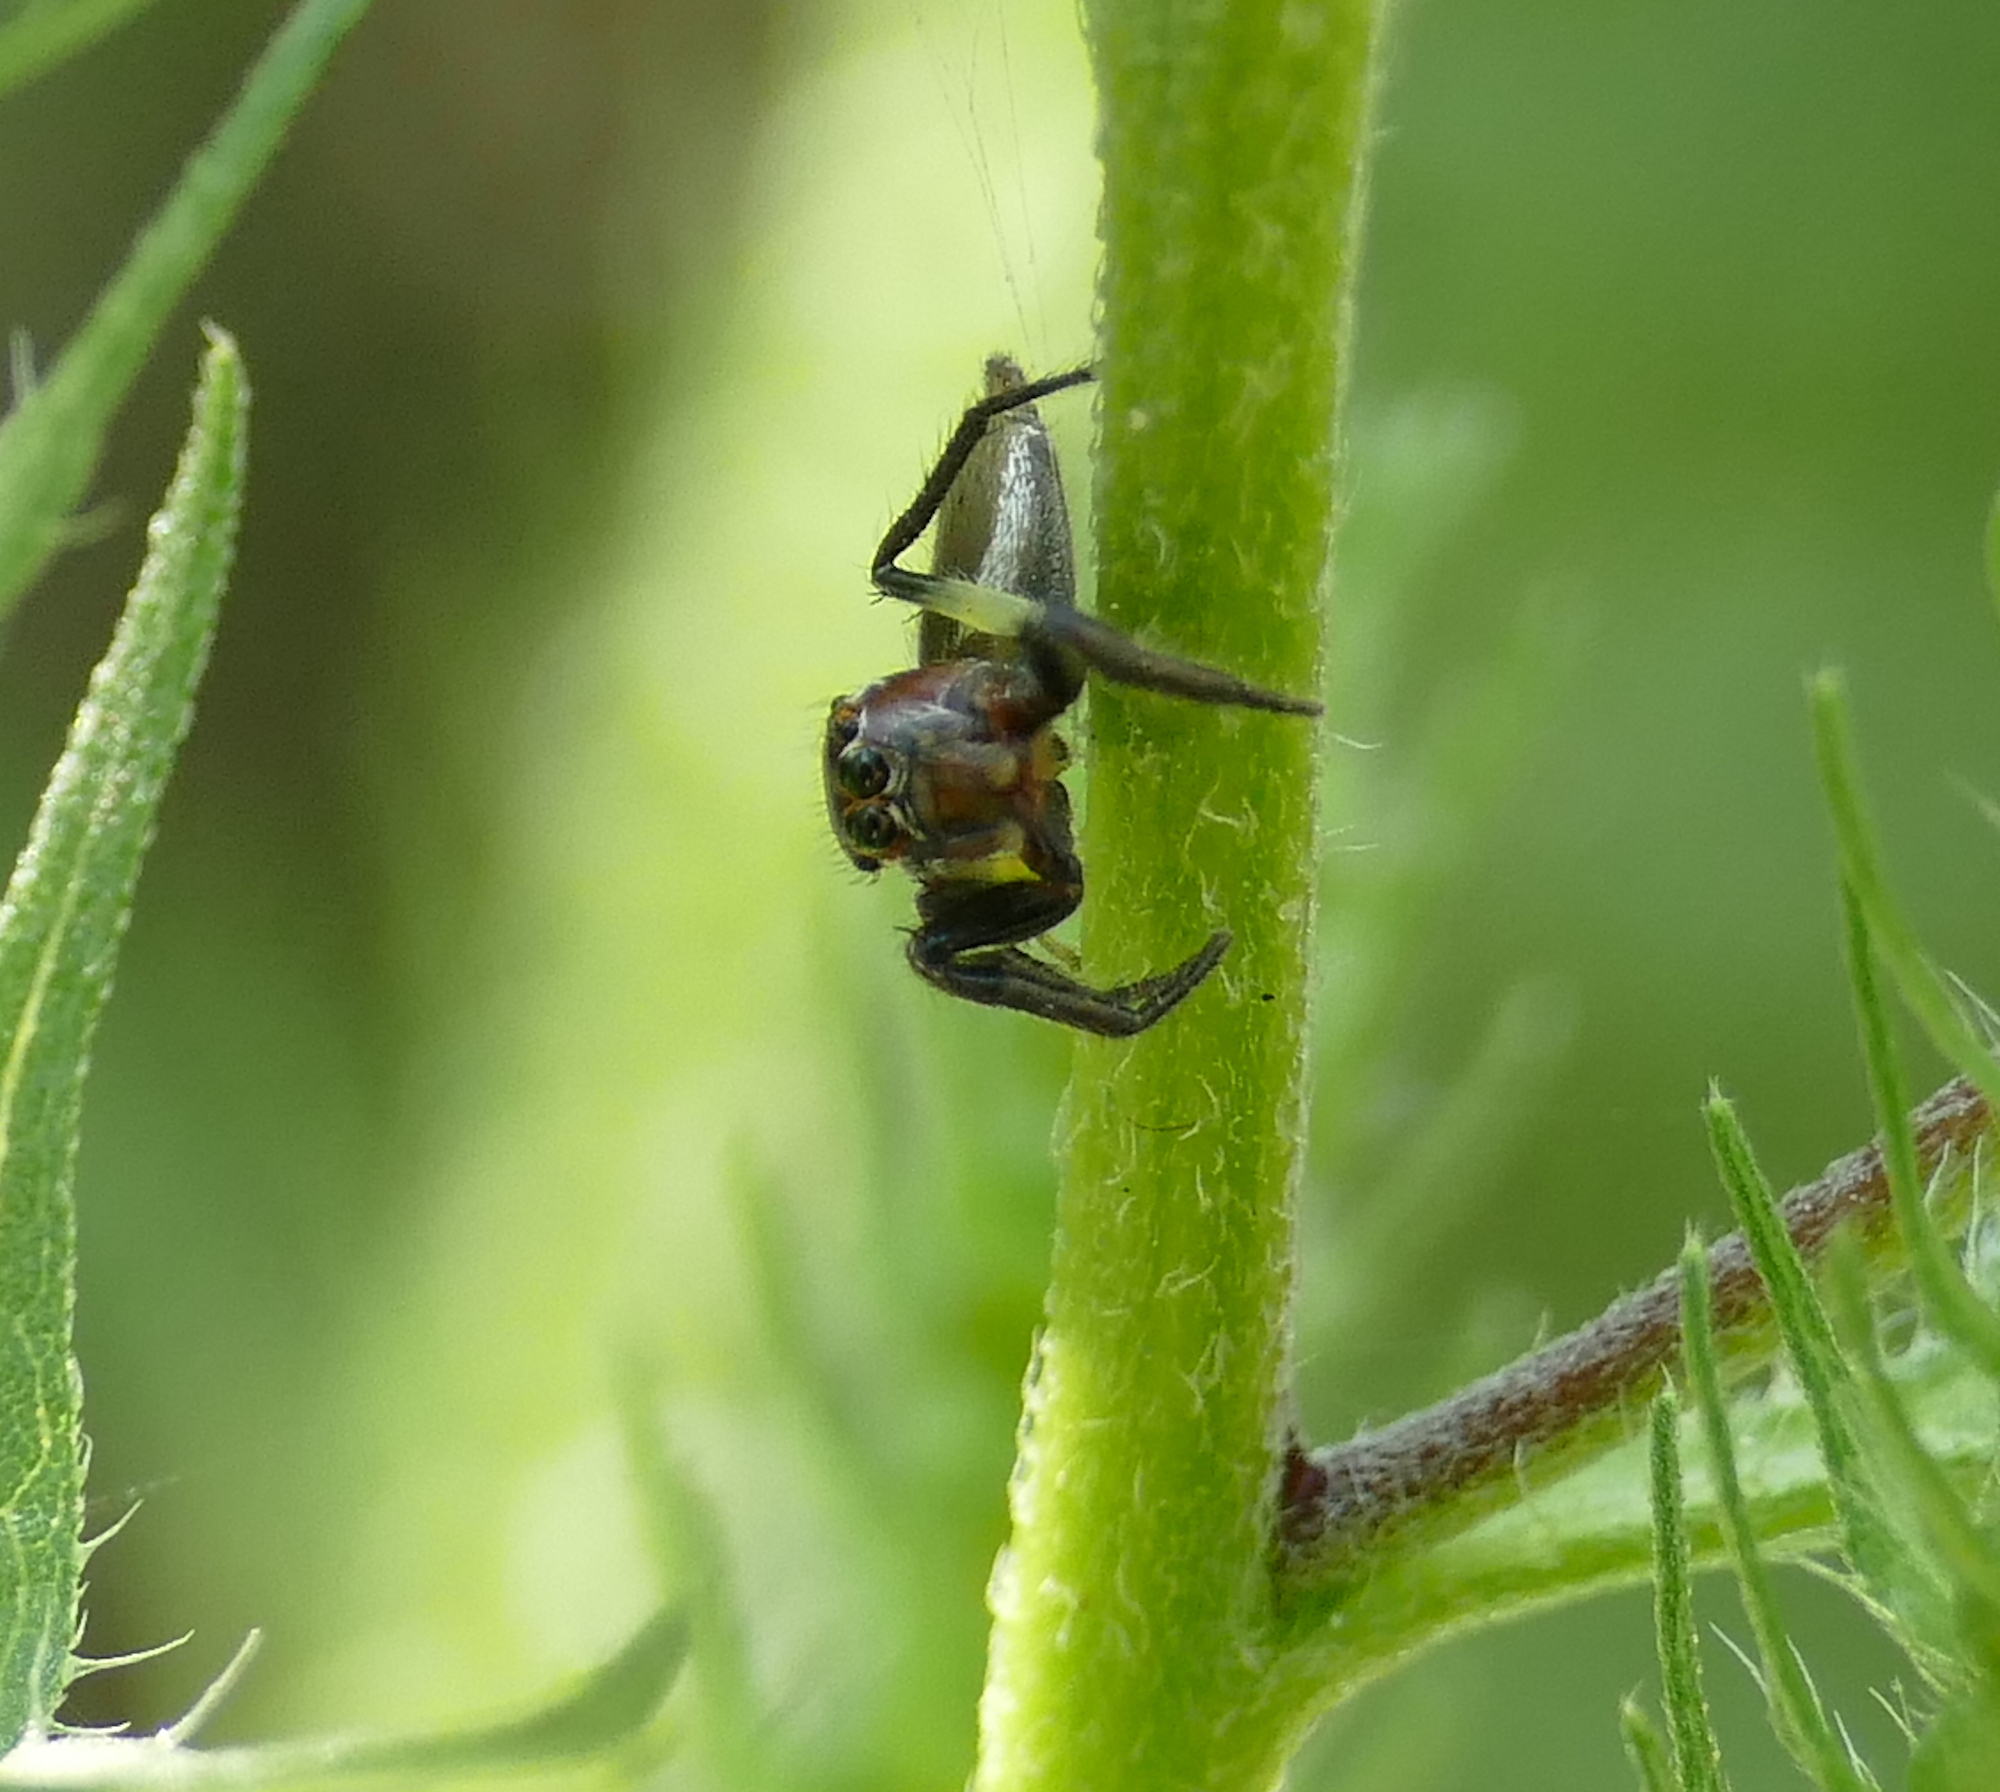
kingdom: Animalia
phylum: Arthropoda
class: Arachnida
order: Araneae
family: Salticidae
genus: Colonus
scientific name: Colonus sylvanus
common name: Jumping spiders
